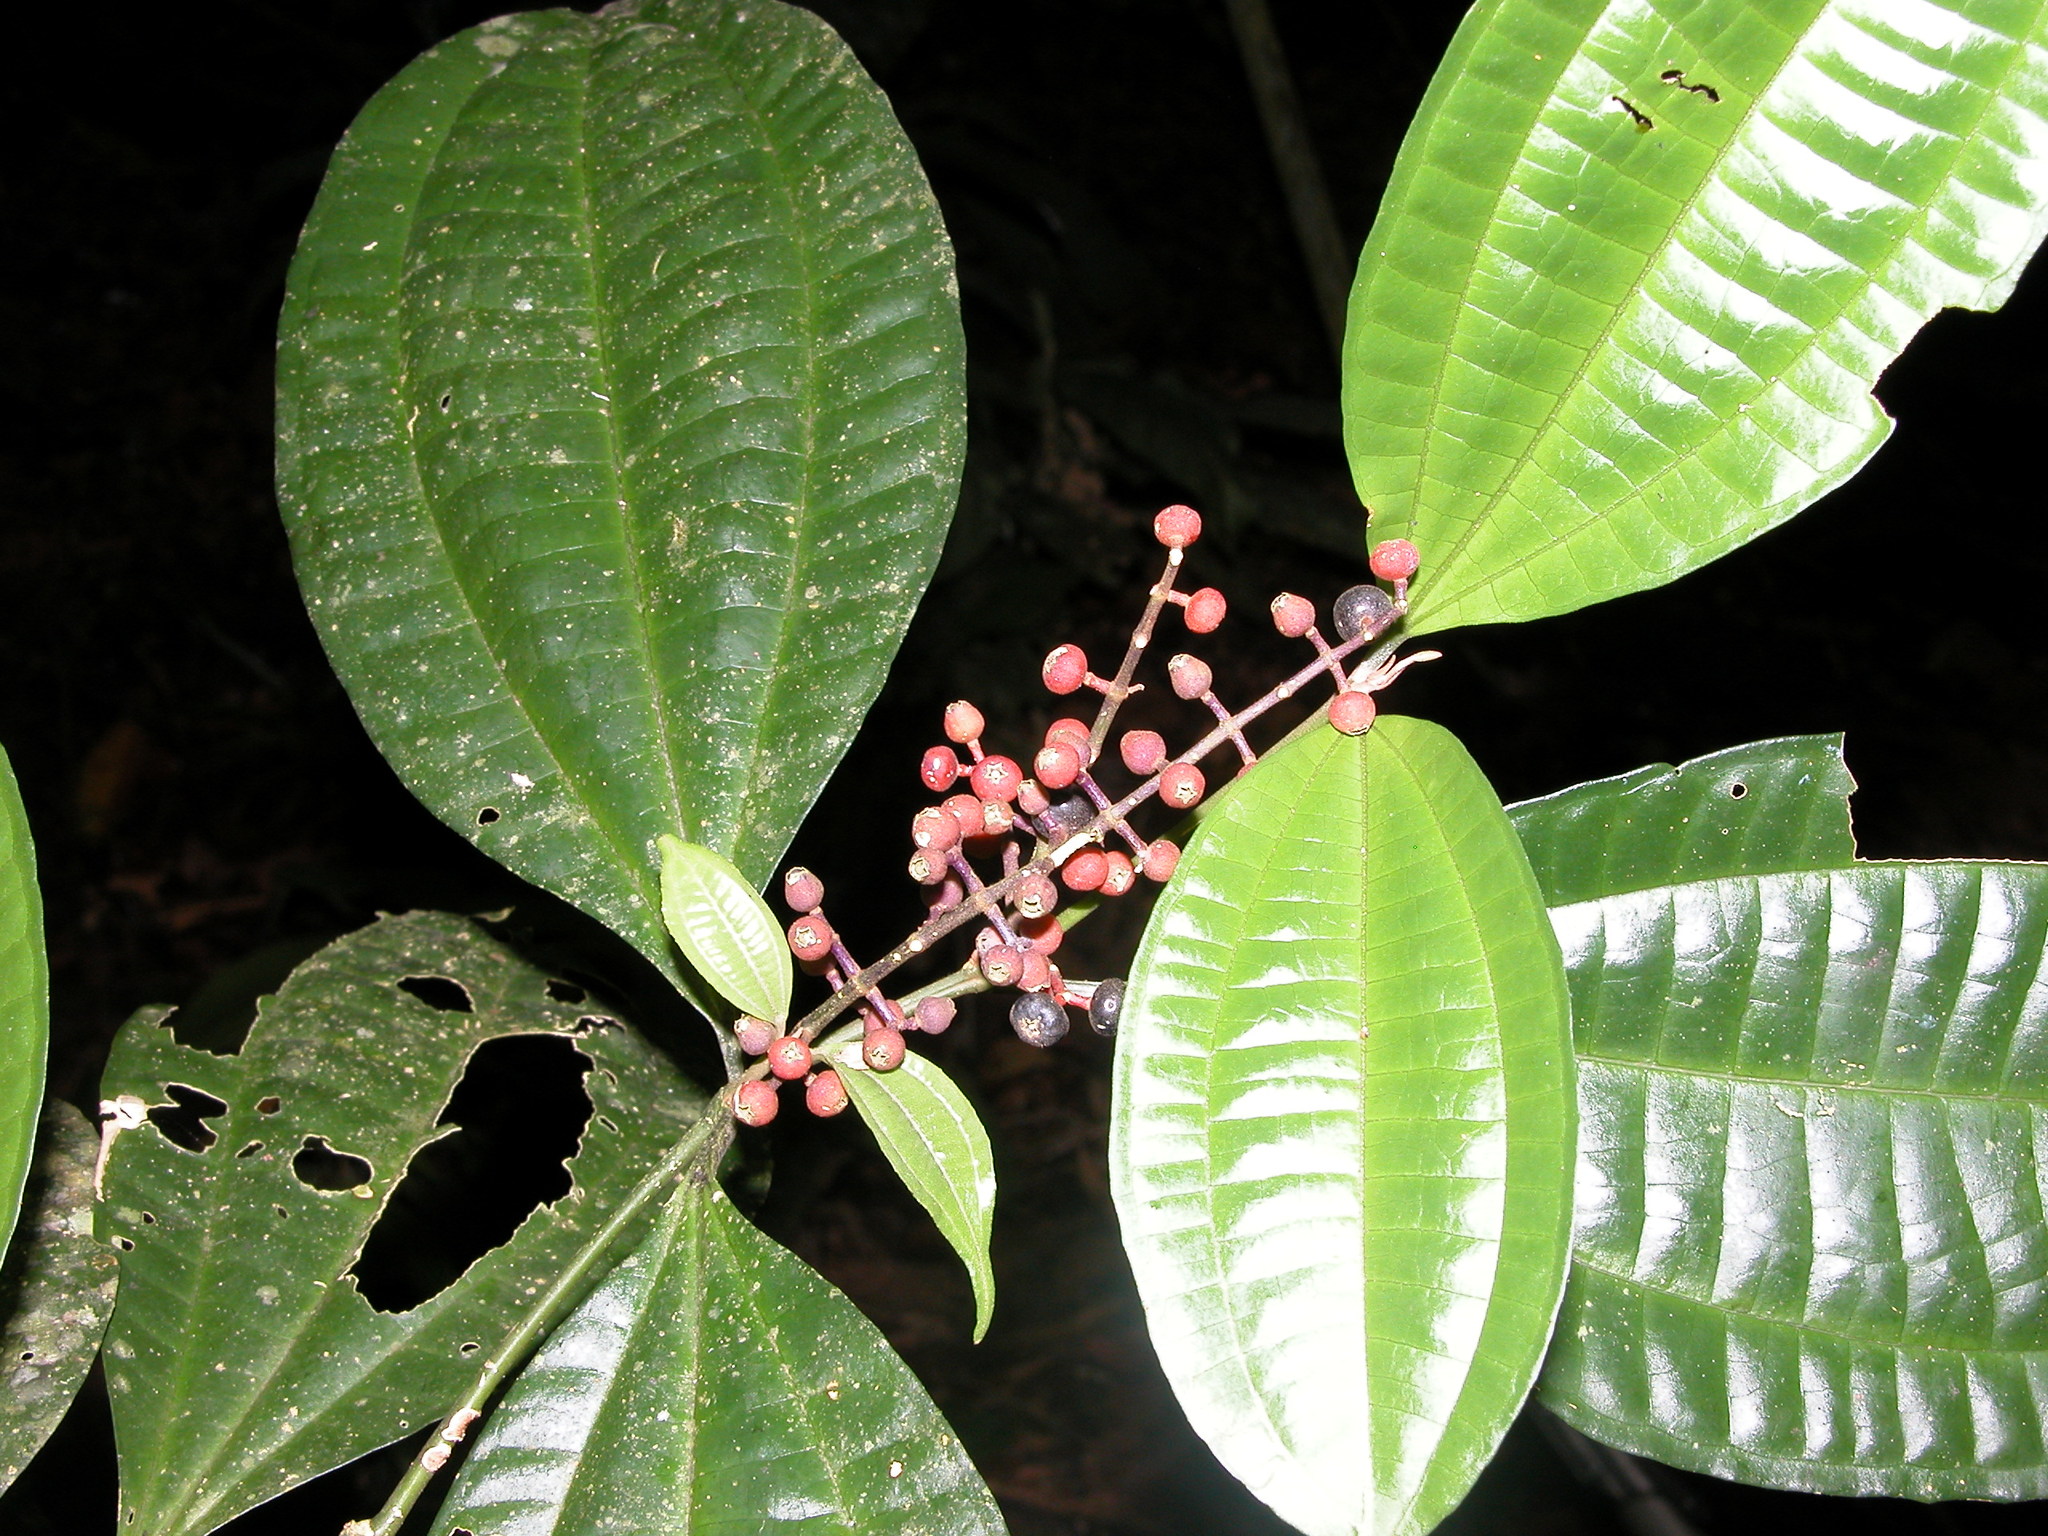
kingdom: Plantae
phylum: Tracheophyta
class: Magnoliopsida
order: Myrtales
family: Melastomataceae
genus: Miconia
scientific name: Miconia gracilis
